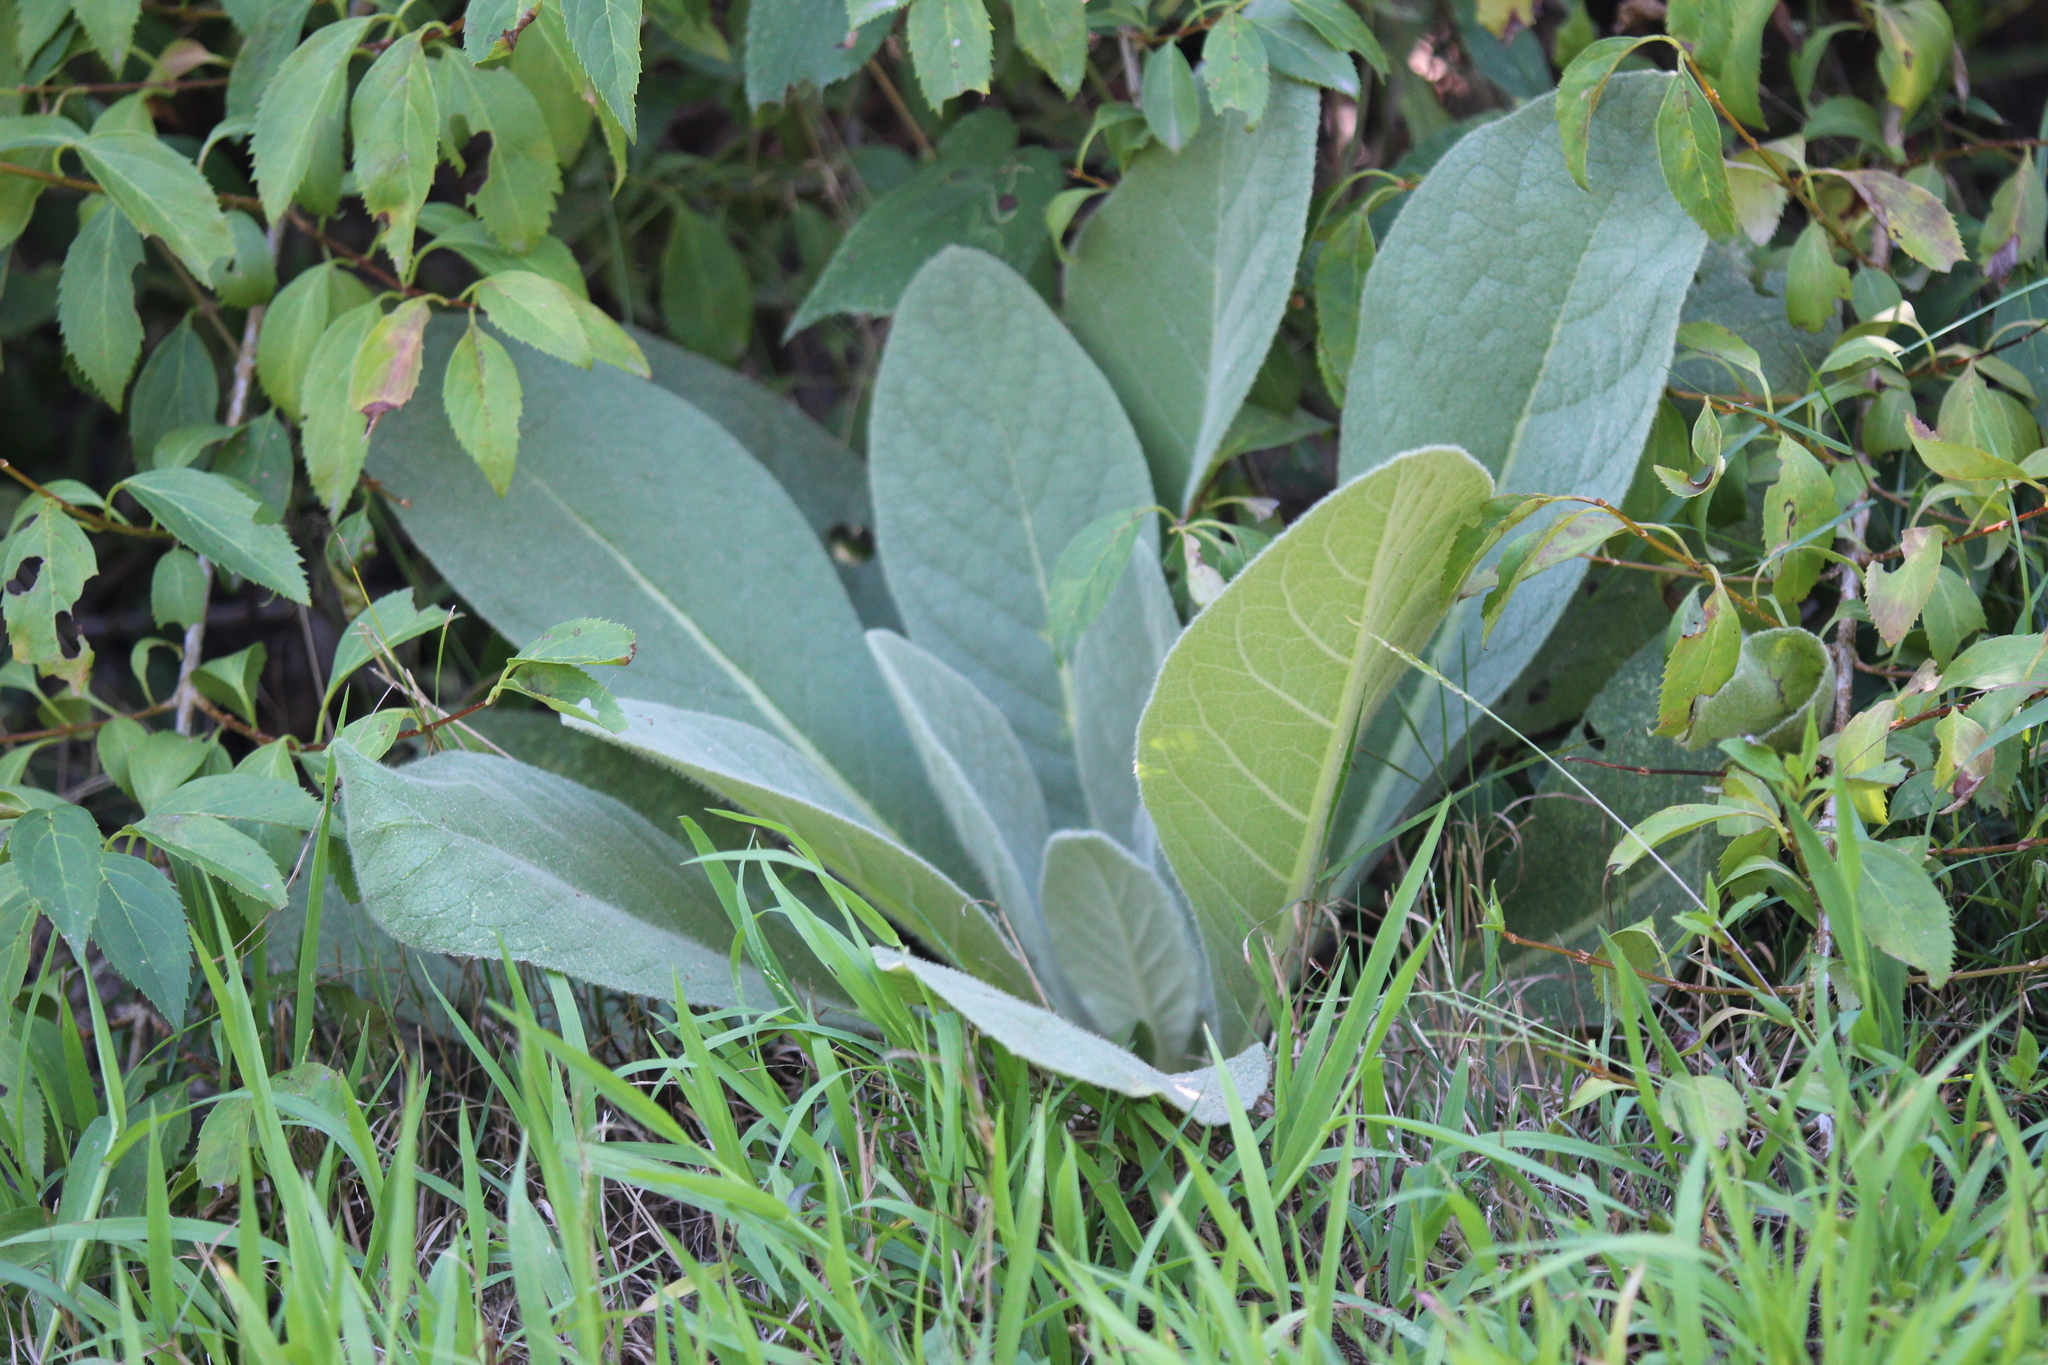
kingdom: Plantae
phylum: Tracheophyta
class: Magnoliopsida
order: Lamiales
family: Scrophulariaceae
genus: Verbascum
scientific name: Verbascum thapsus
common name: Common mullein
